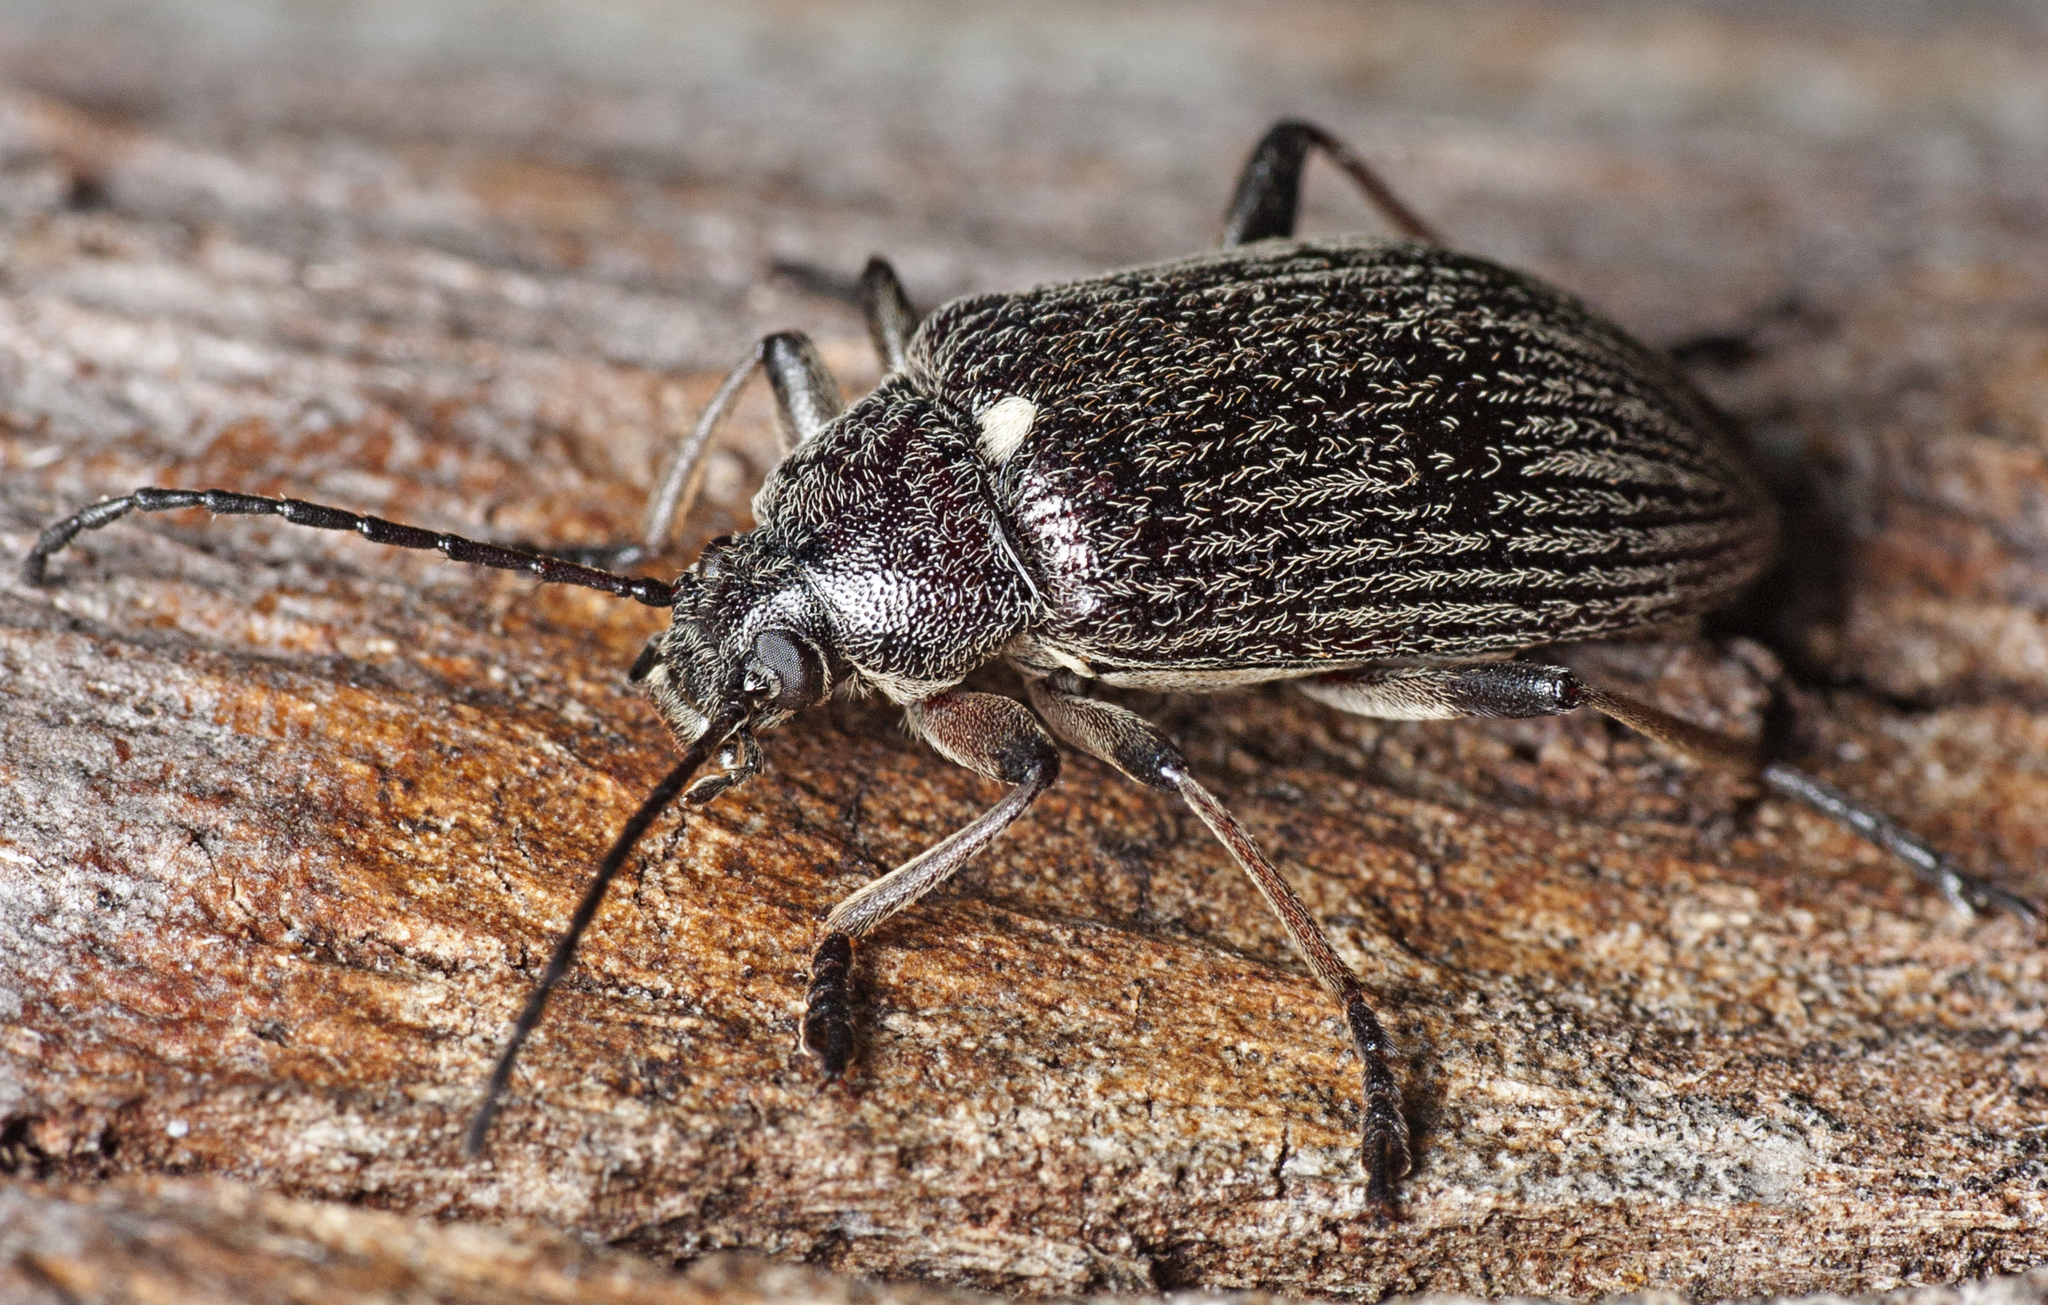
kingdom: Animalia
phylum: Arthropoda
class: Insecta
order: Coleoptera
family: Tenebrionidae
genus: Homotrysis
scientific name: Homotrysis
